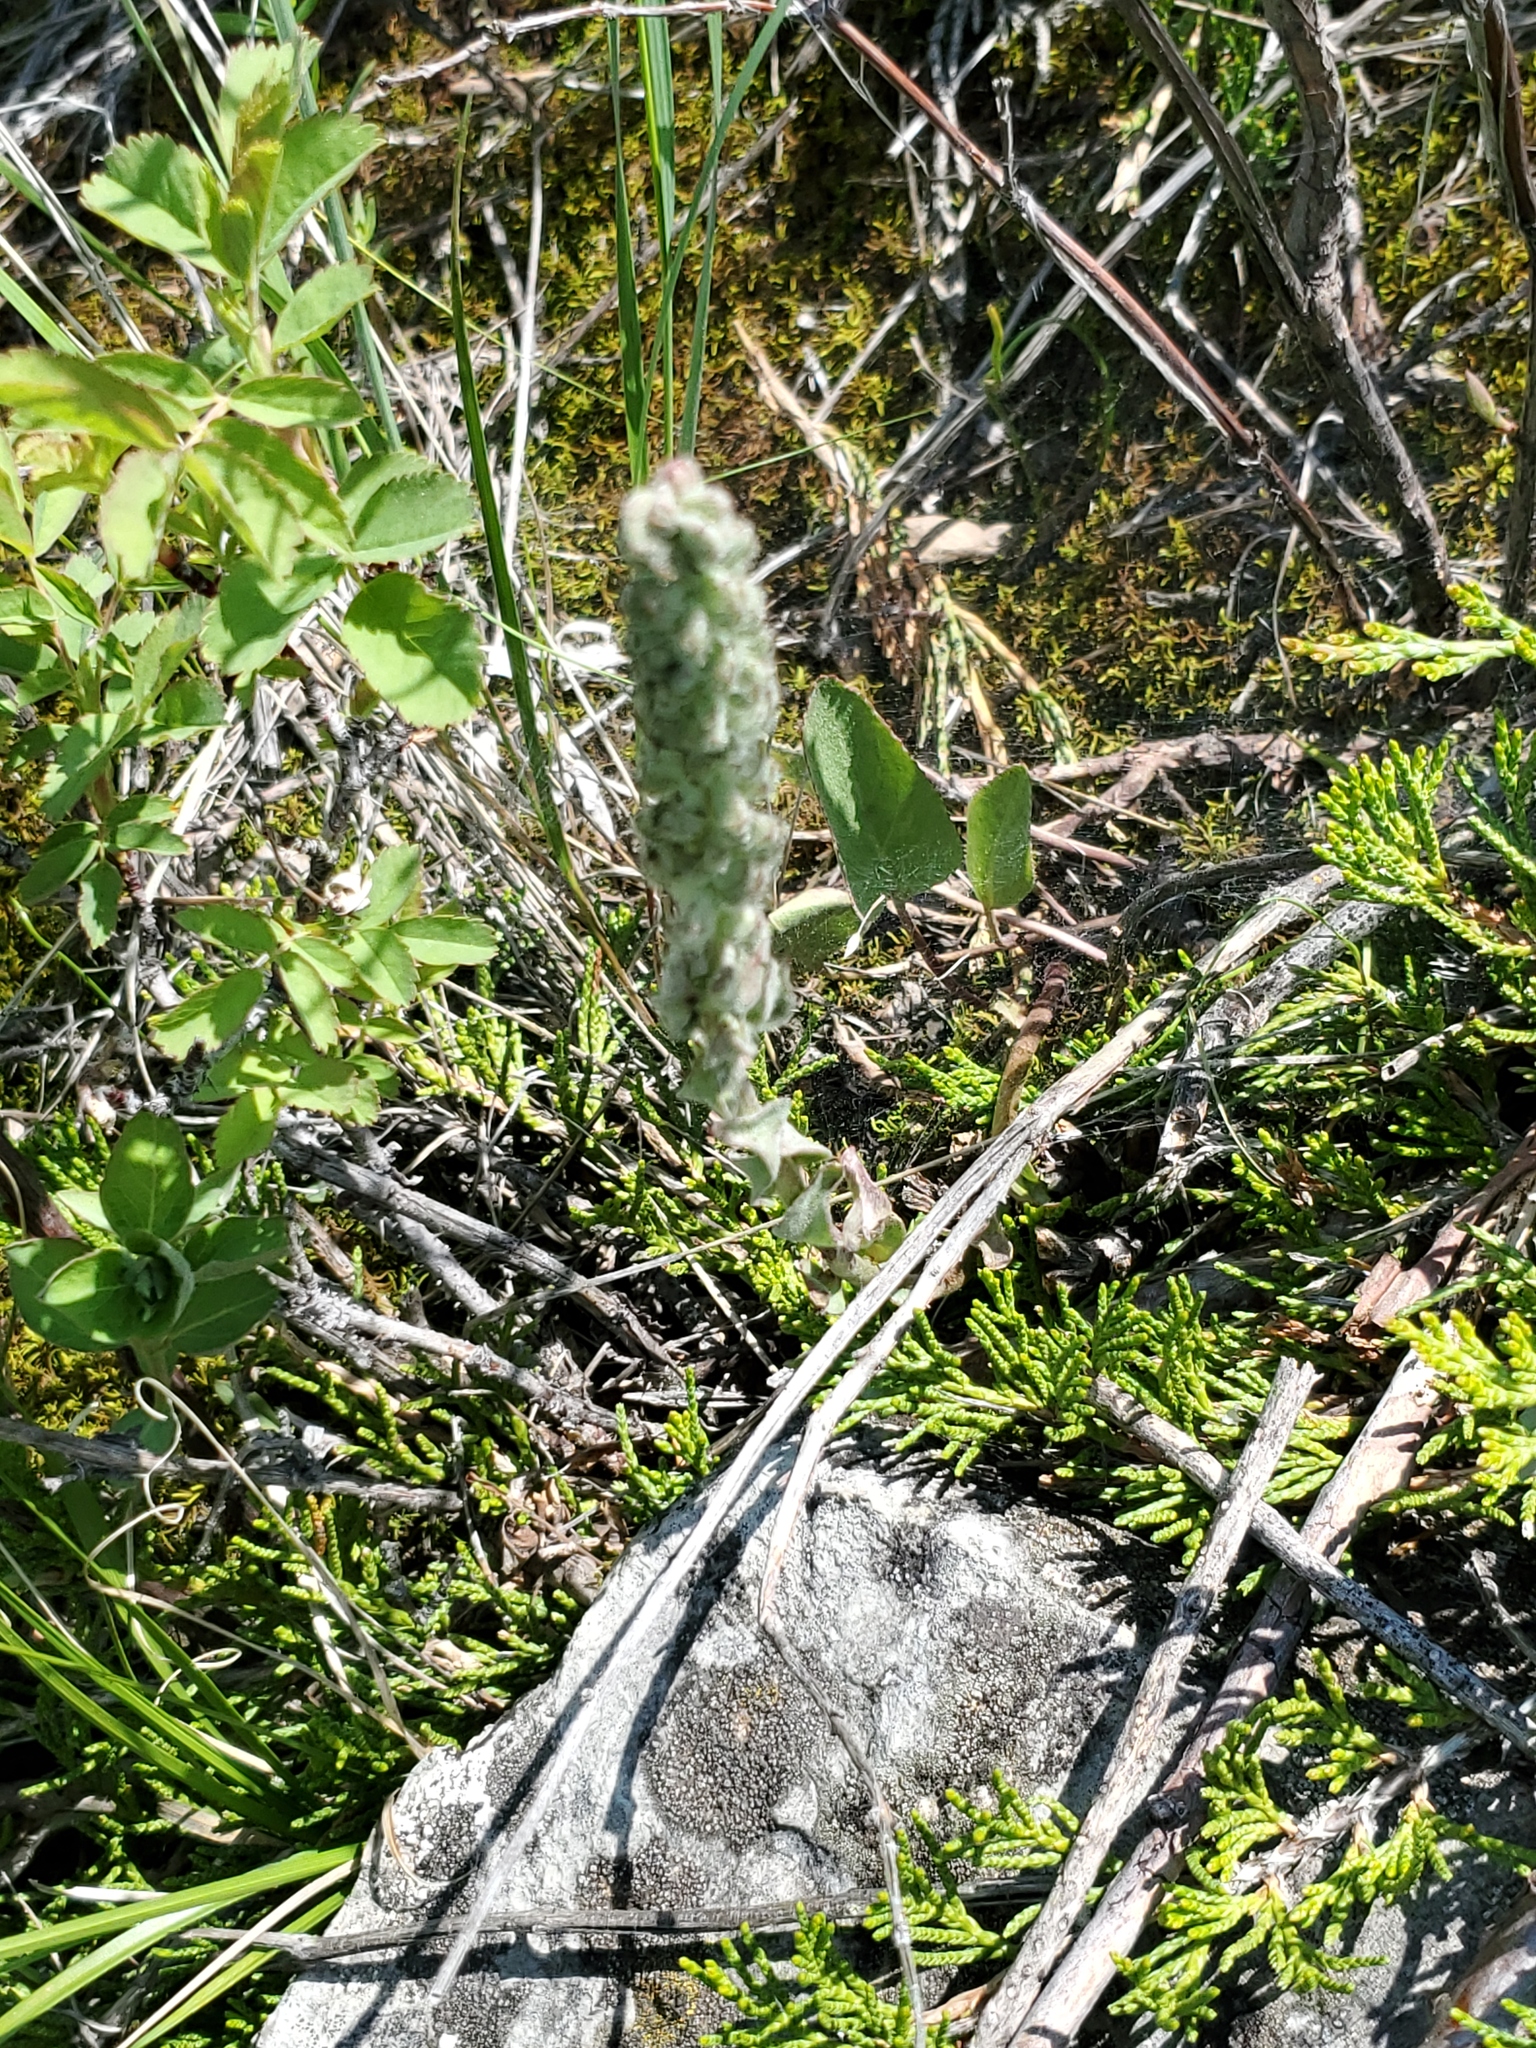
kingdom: Plantae
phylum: Tracheophyta
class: Magnoliopsida
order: Lamiales
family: Plantaginaceae
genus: Synthyris
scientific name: Synthyris wyomingensis
